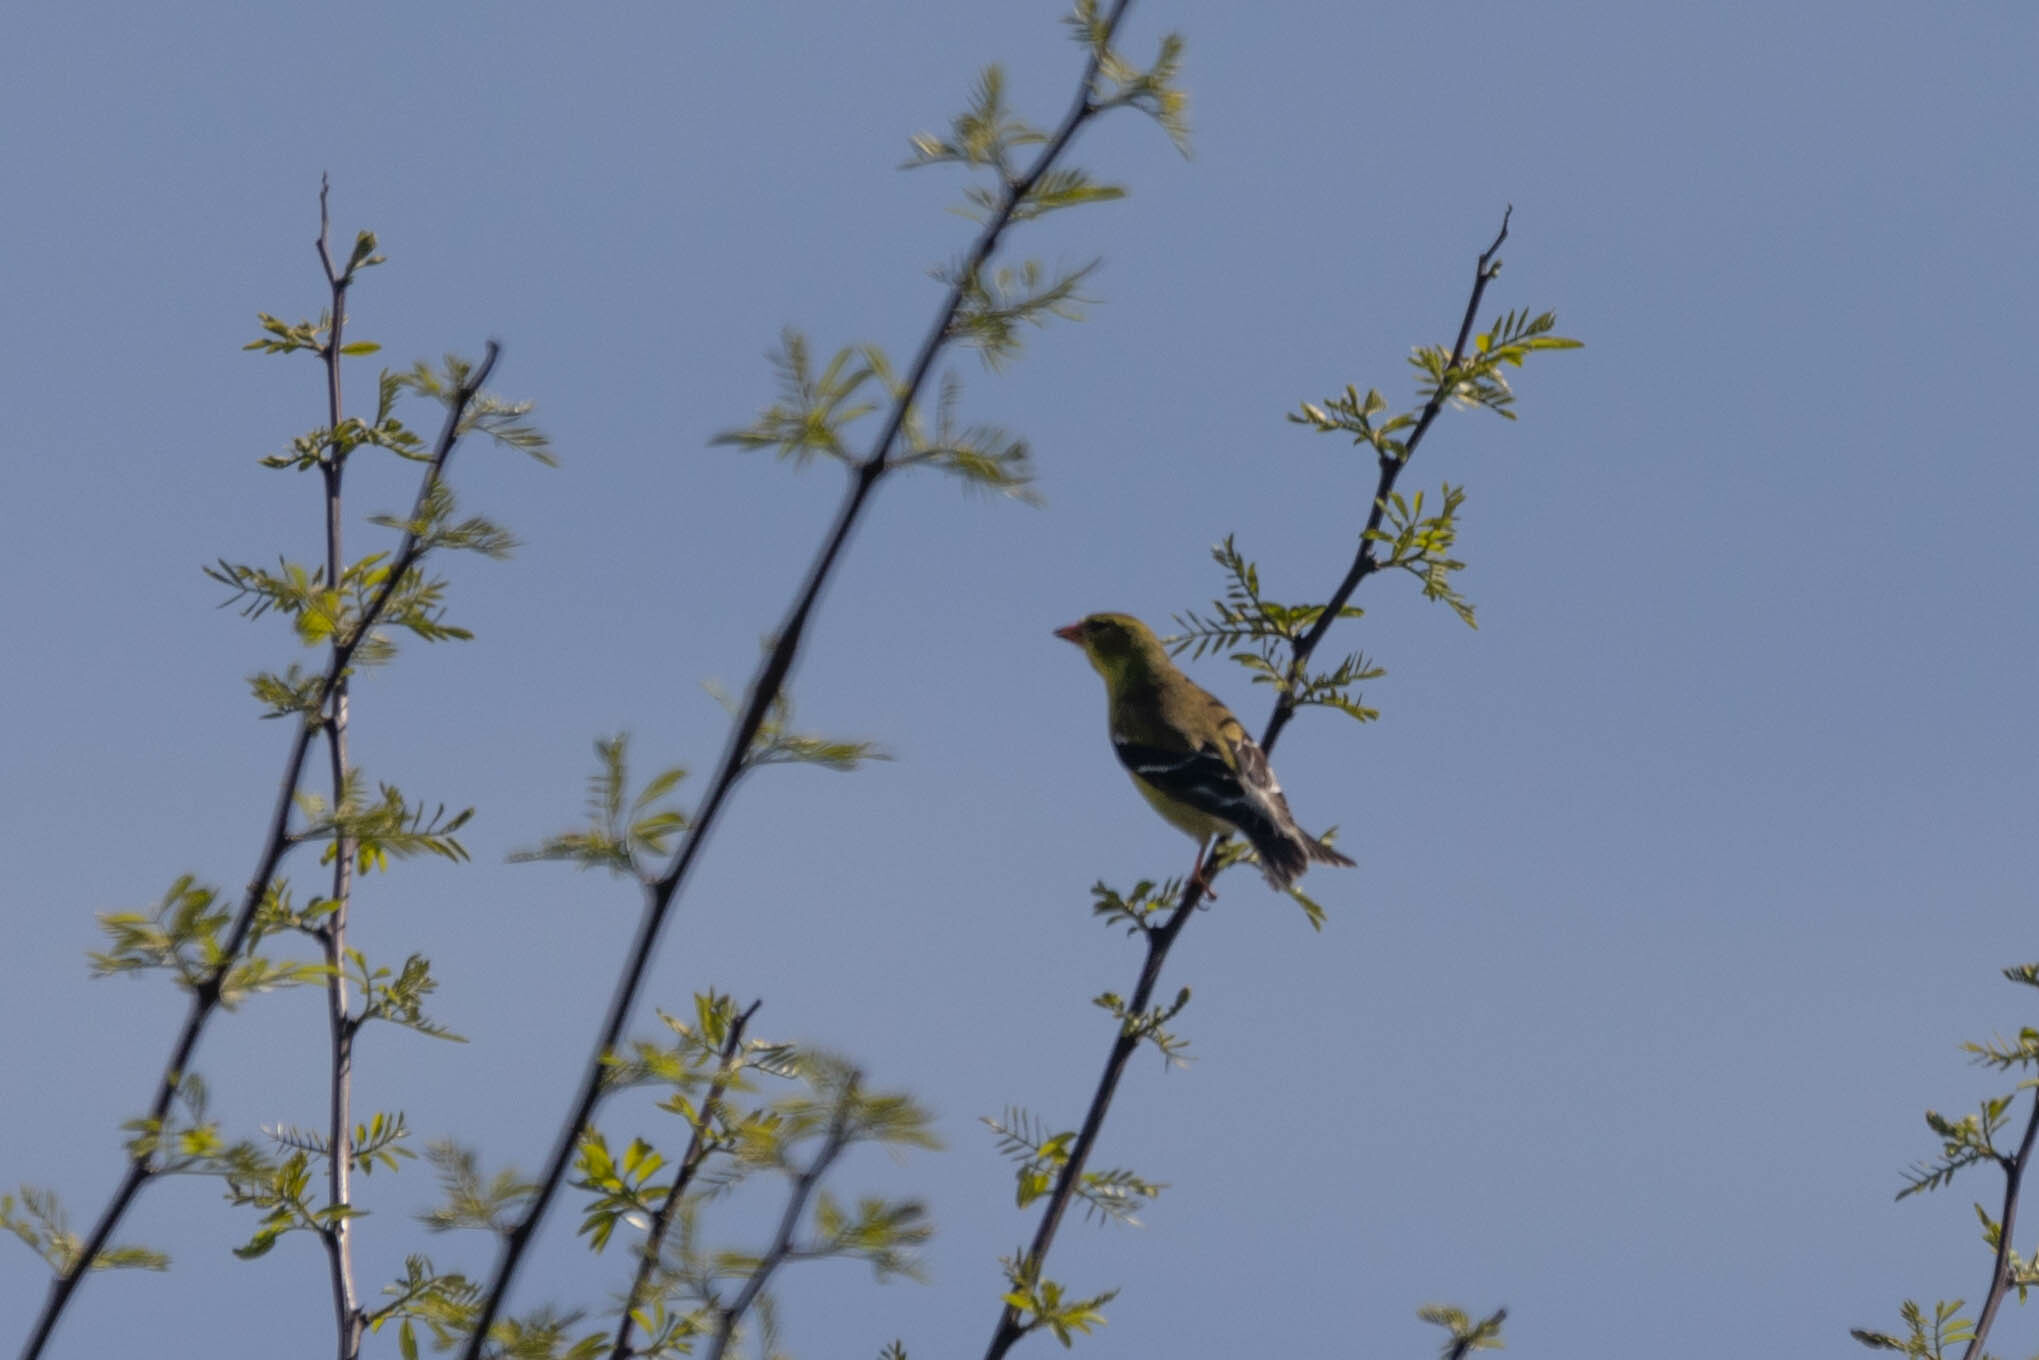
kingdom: Animalia
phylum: Chordata
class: Aves
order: Passeriformes
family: Fringillidae
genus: Spinus
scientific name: Spinus tristis
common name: American goldfinch
